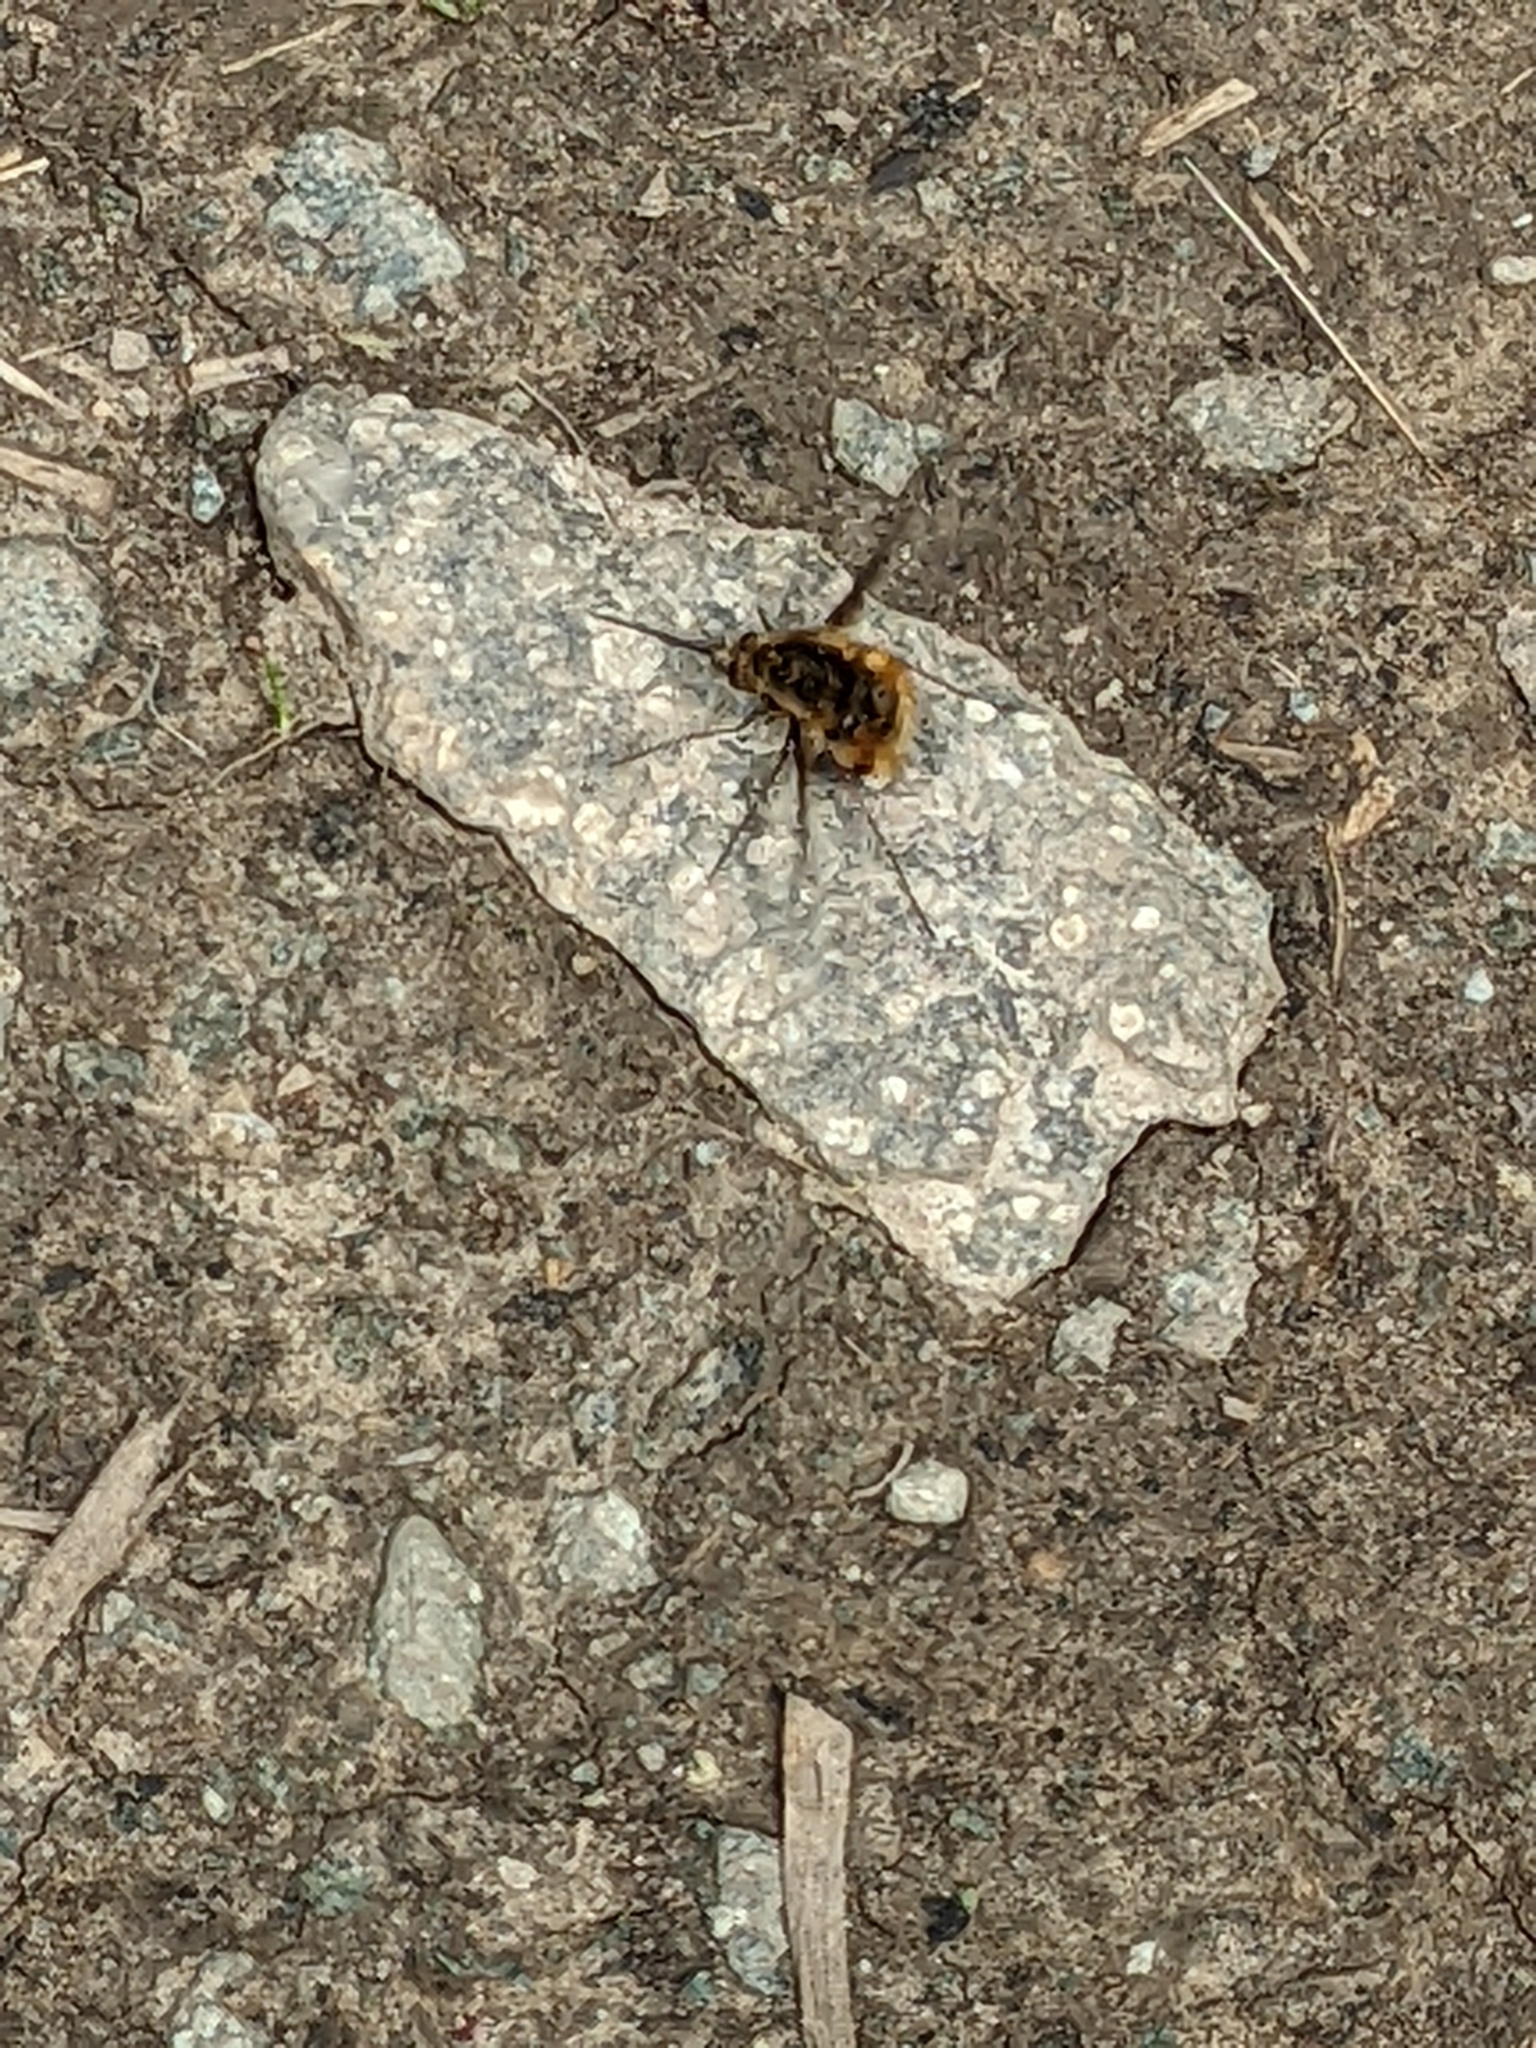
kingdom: Animalia
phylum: Arthropoda
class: Insecta
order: Diptera
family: Bombyliidae
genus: Bombylius
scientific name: Bombylius major
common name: Bee fly
